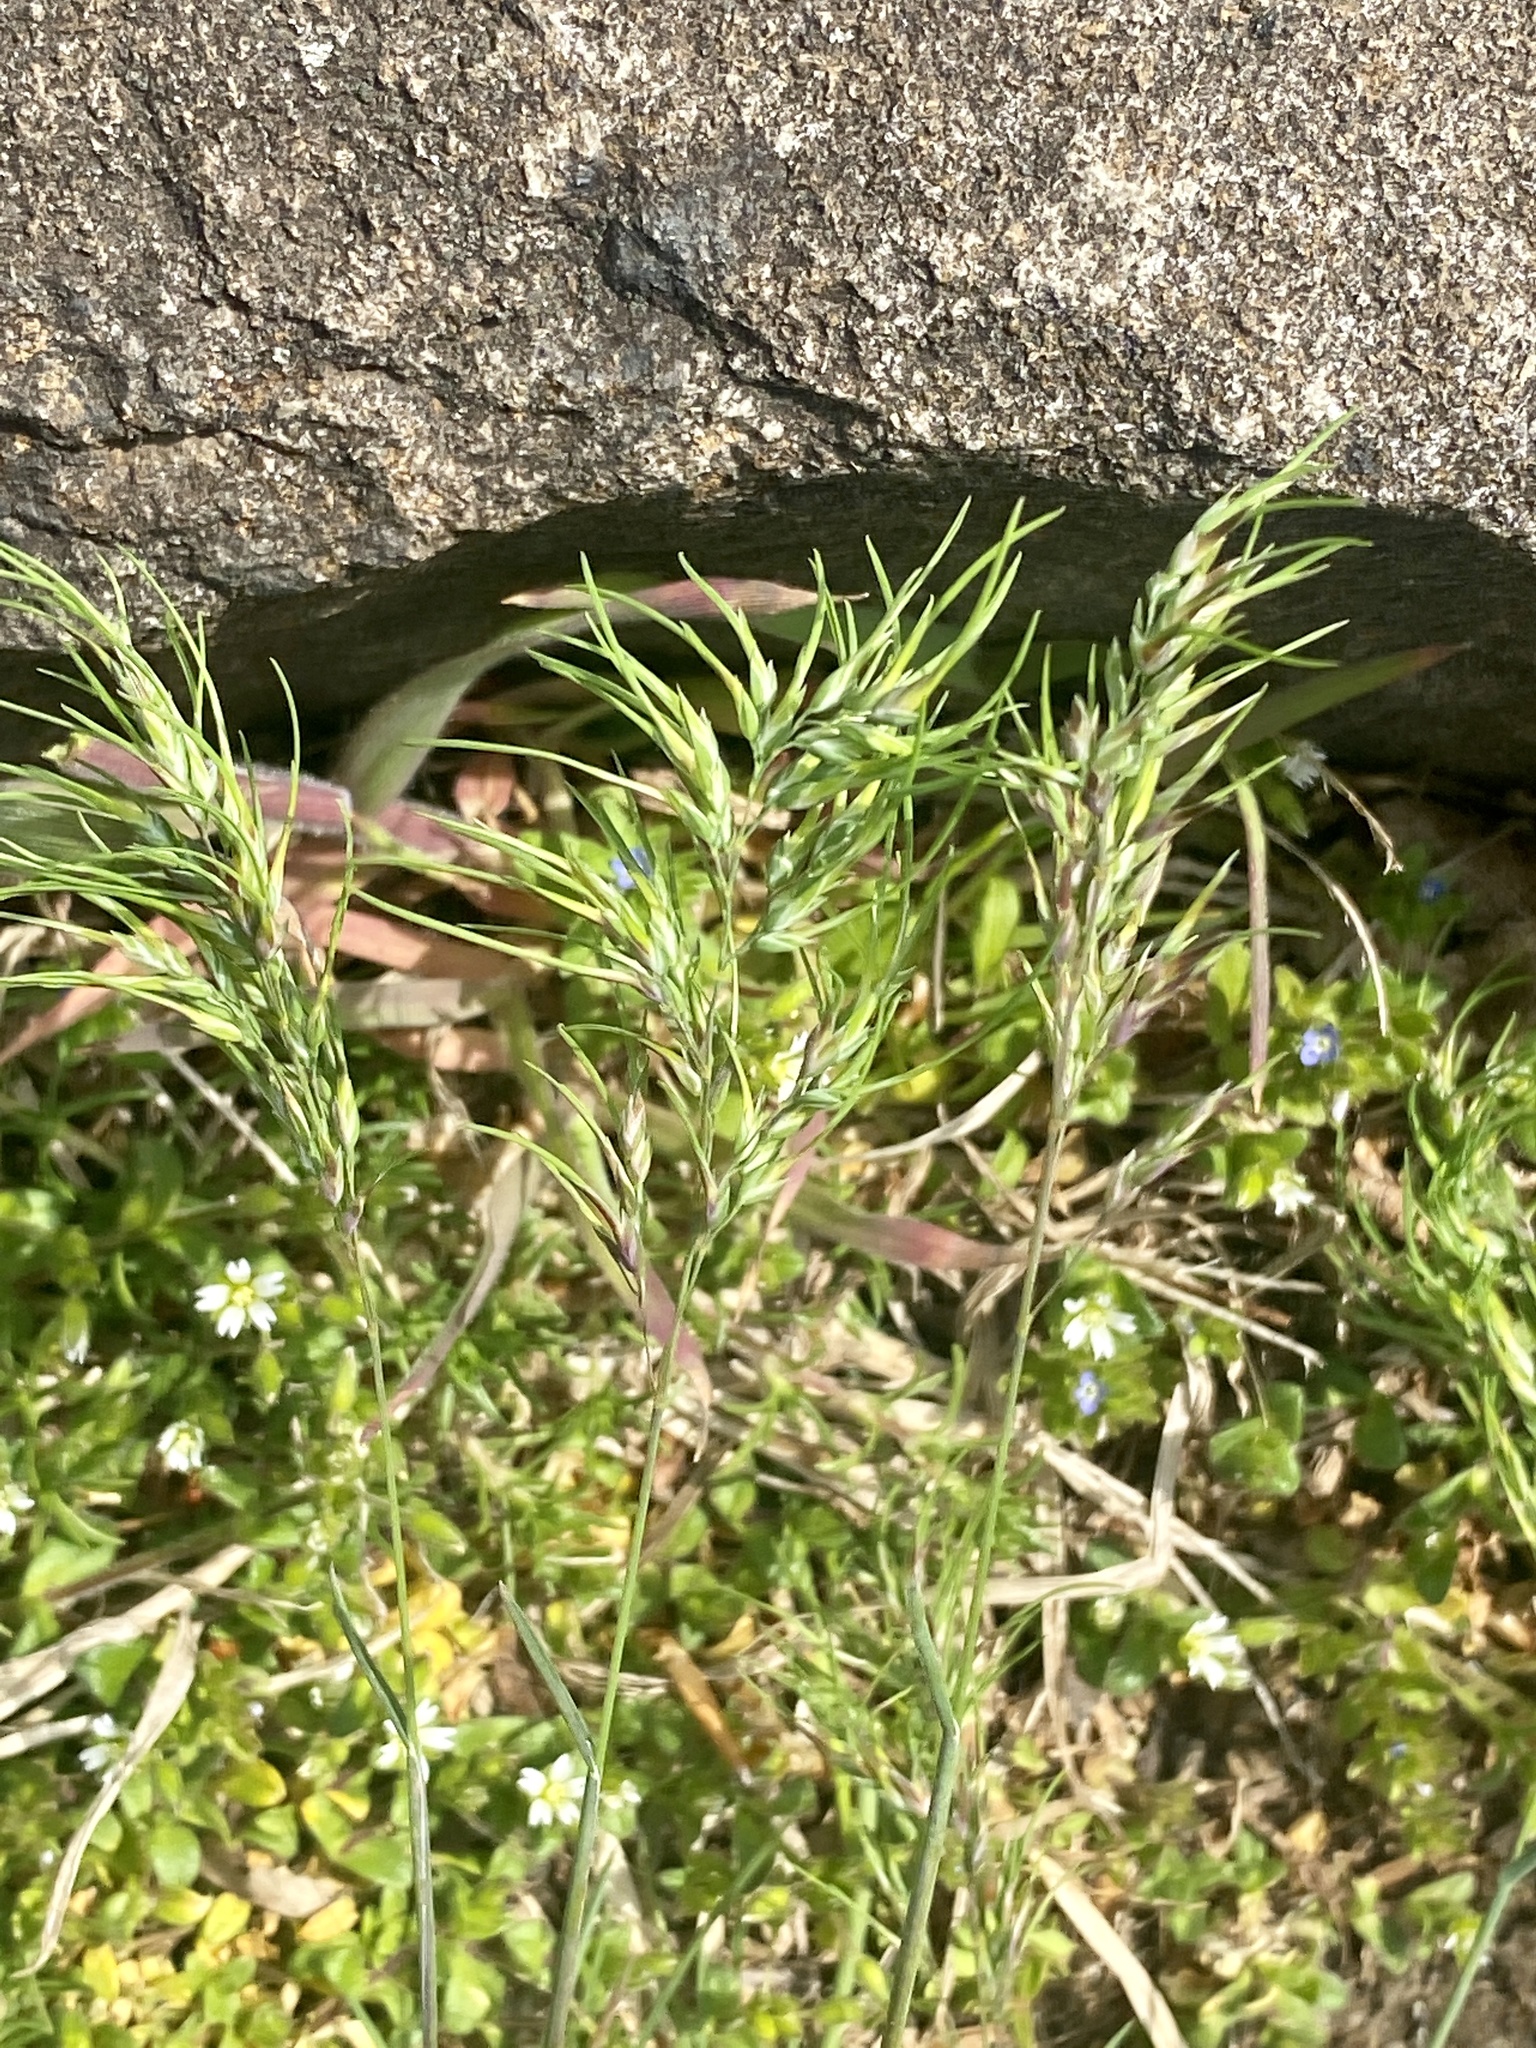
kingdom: Plantae
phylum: Tracheophyta
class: Liliopsida
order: Poales
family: Poaceae
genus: Poa
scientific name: Poa bulbosa
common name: Bulbous bluegrass
